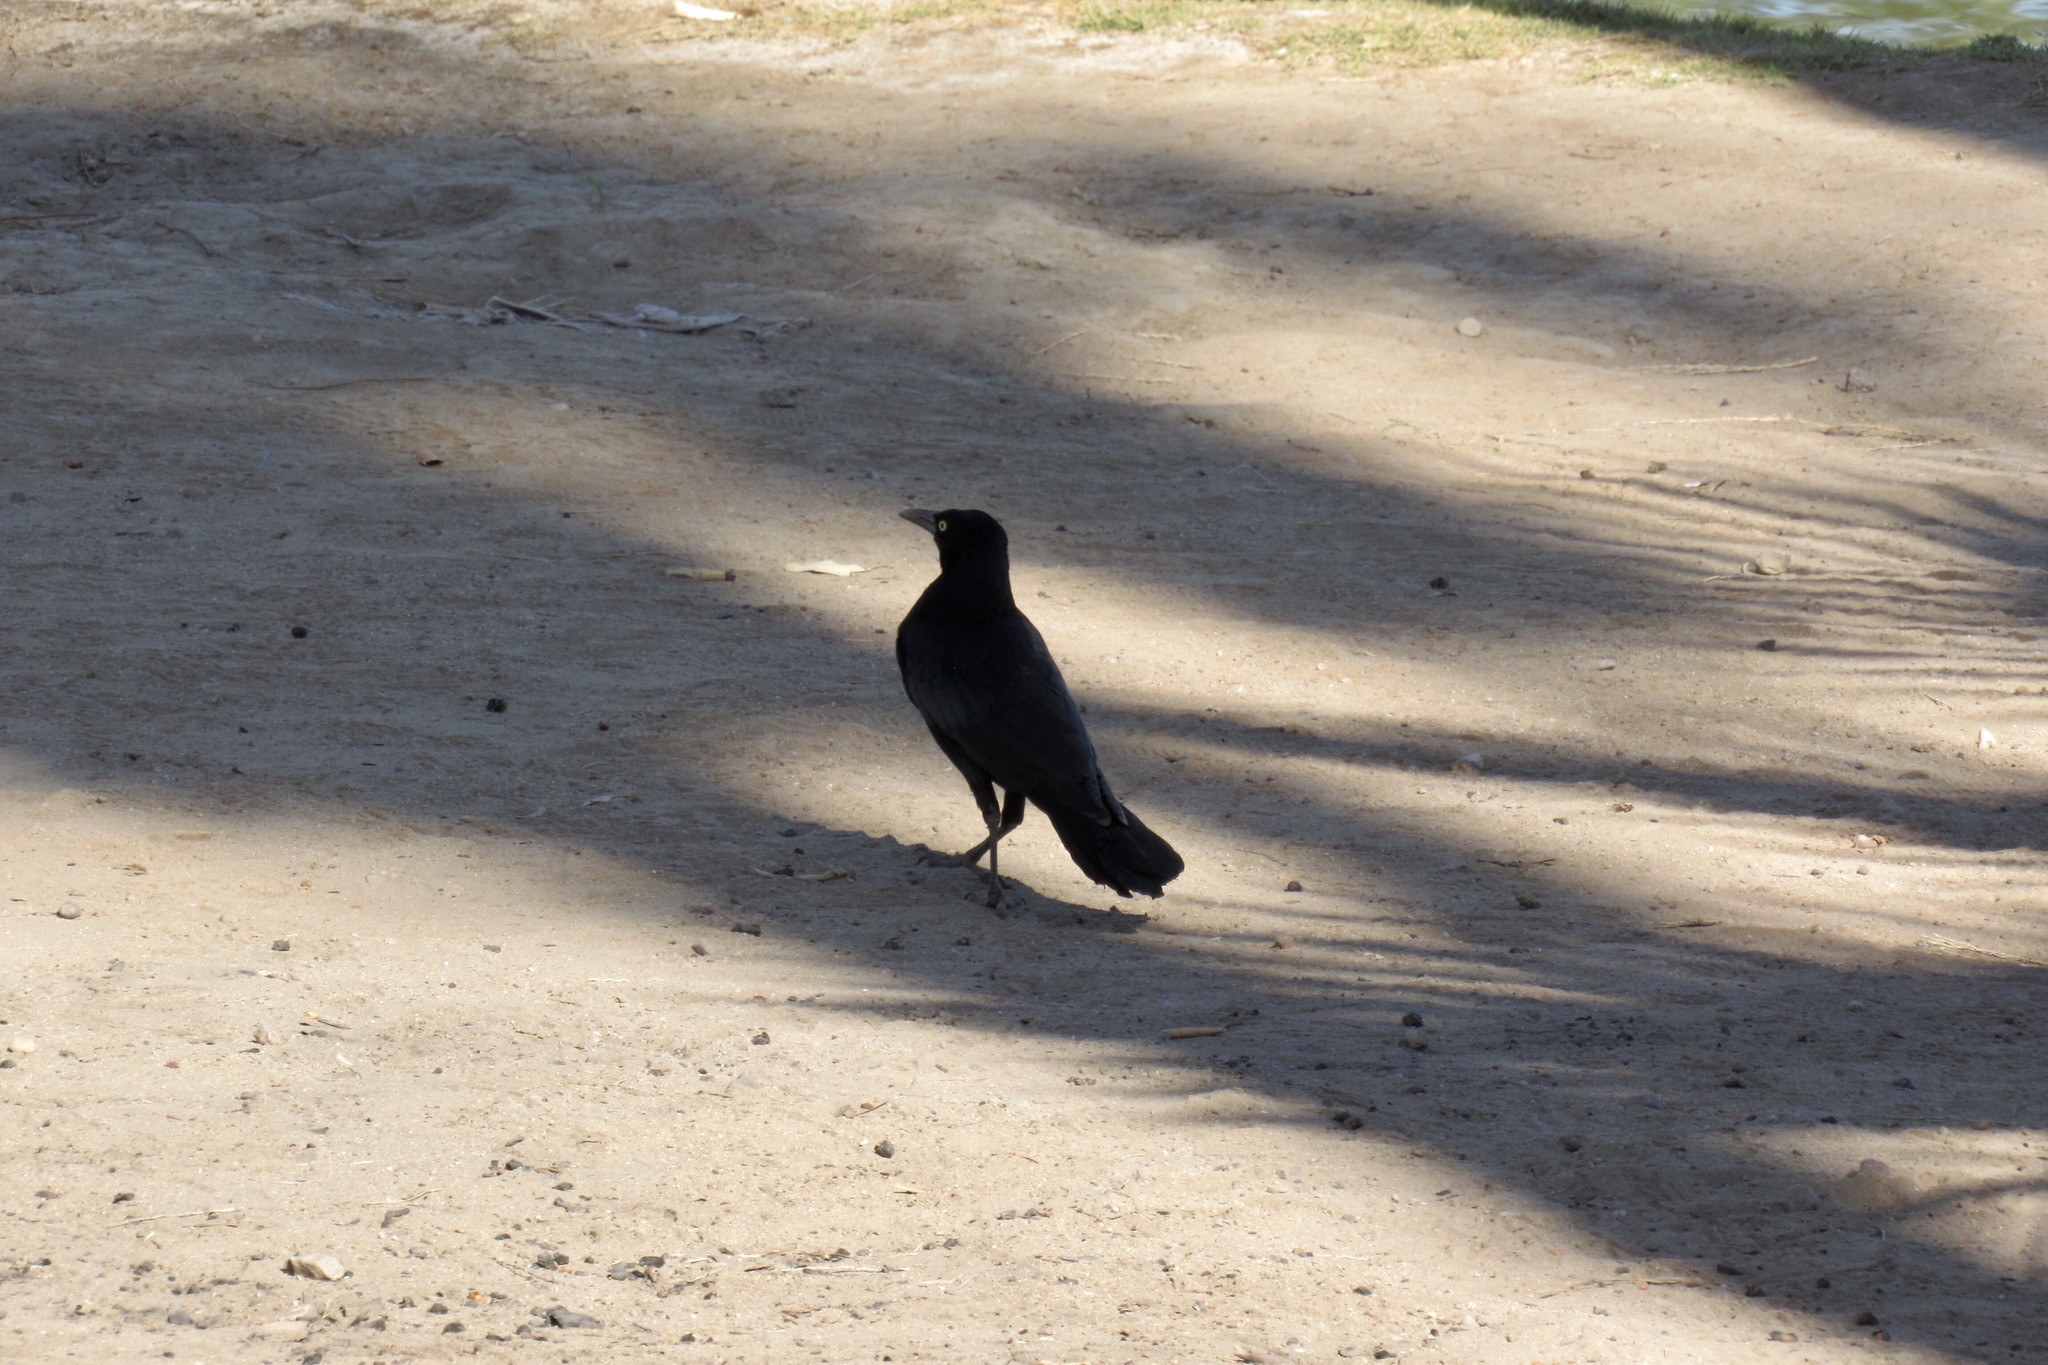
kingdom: Animalia
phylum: Chordata
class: Aves
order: Passeriformes
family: Icteridae
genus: Quiscalus
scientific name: Quiscalus mexicanus
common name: Great-tailed grackle
